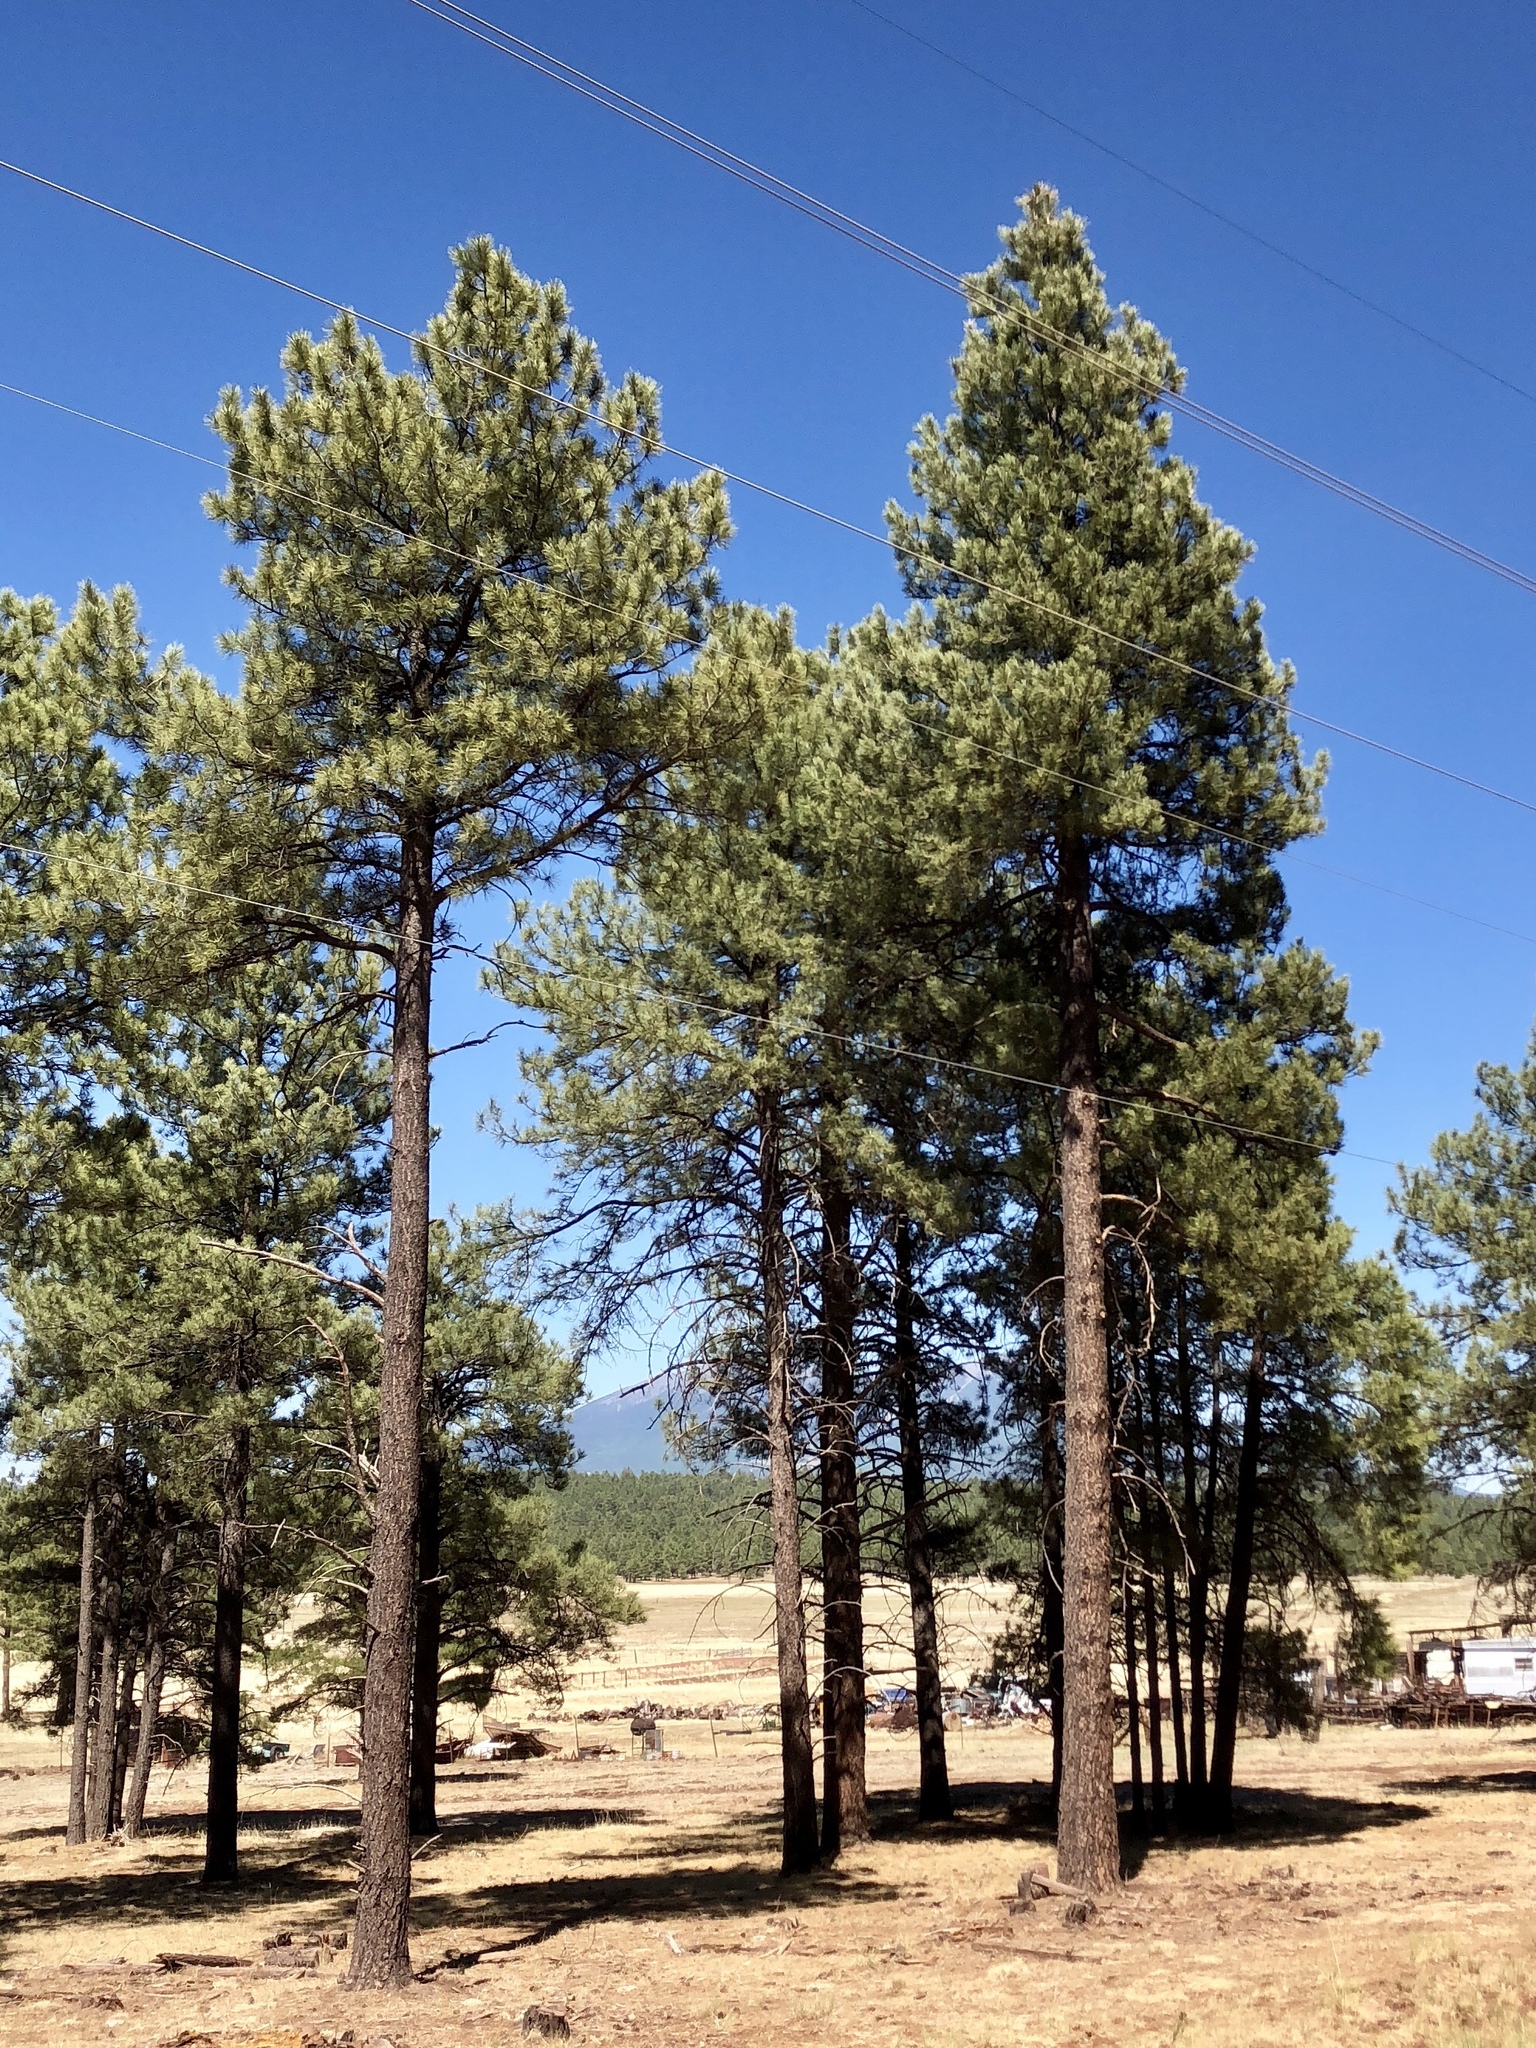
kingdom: Plantae
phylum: Tracheophyta
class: Pinopsida
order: Pinales
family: Pinaceae
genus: Pinus
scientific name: Pinus ponderosa
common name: Western yellow-pine
